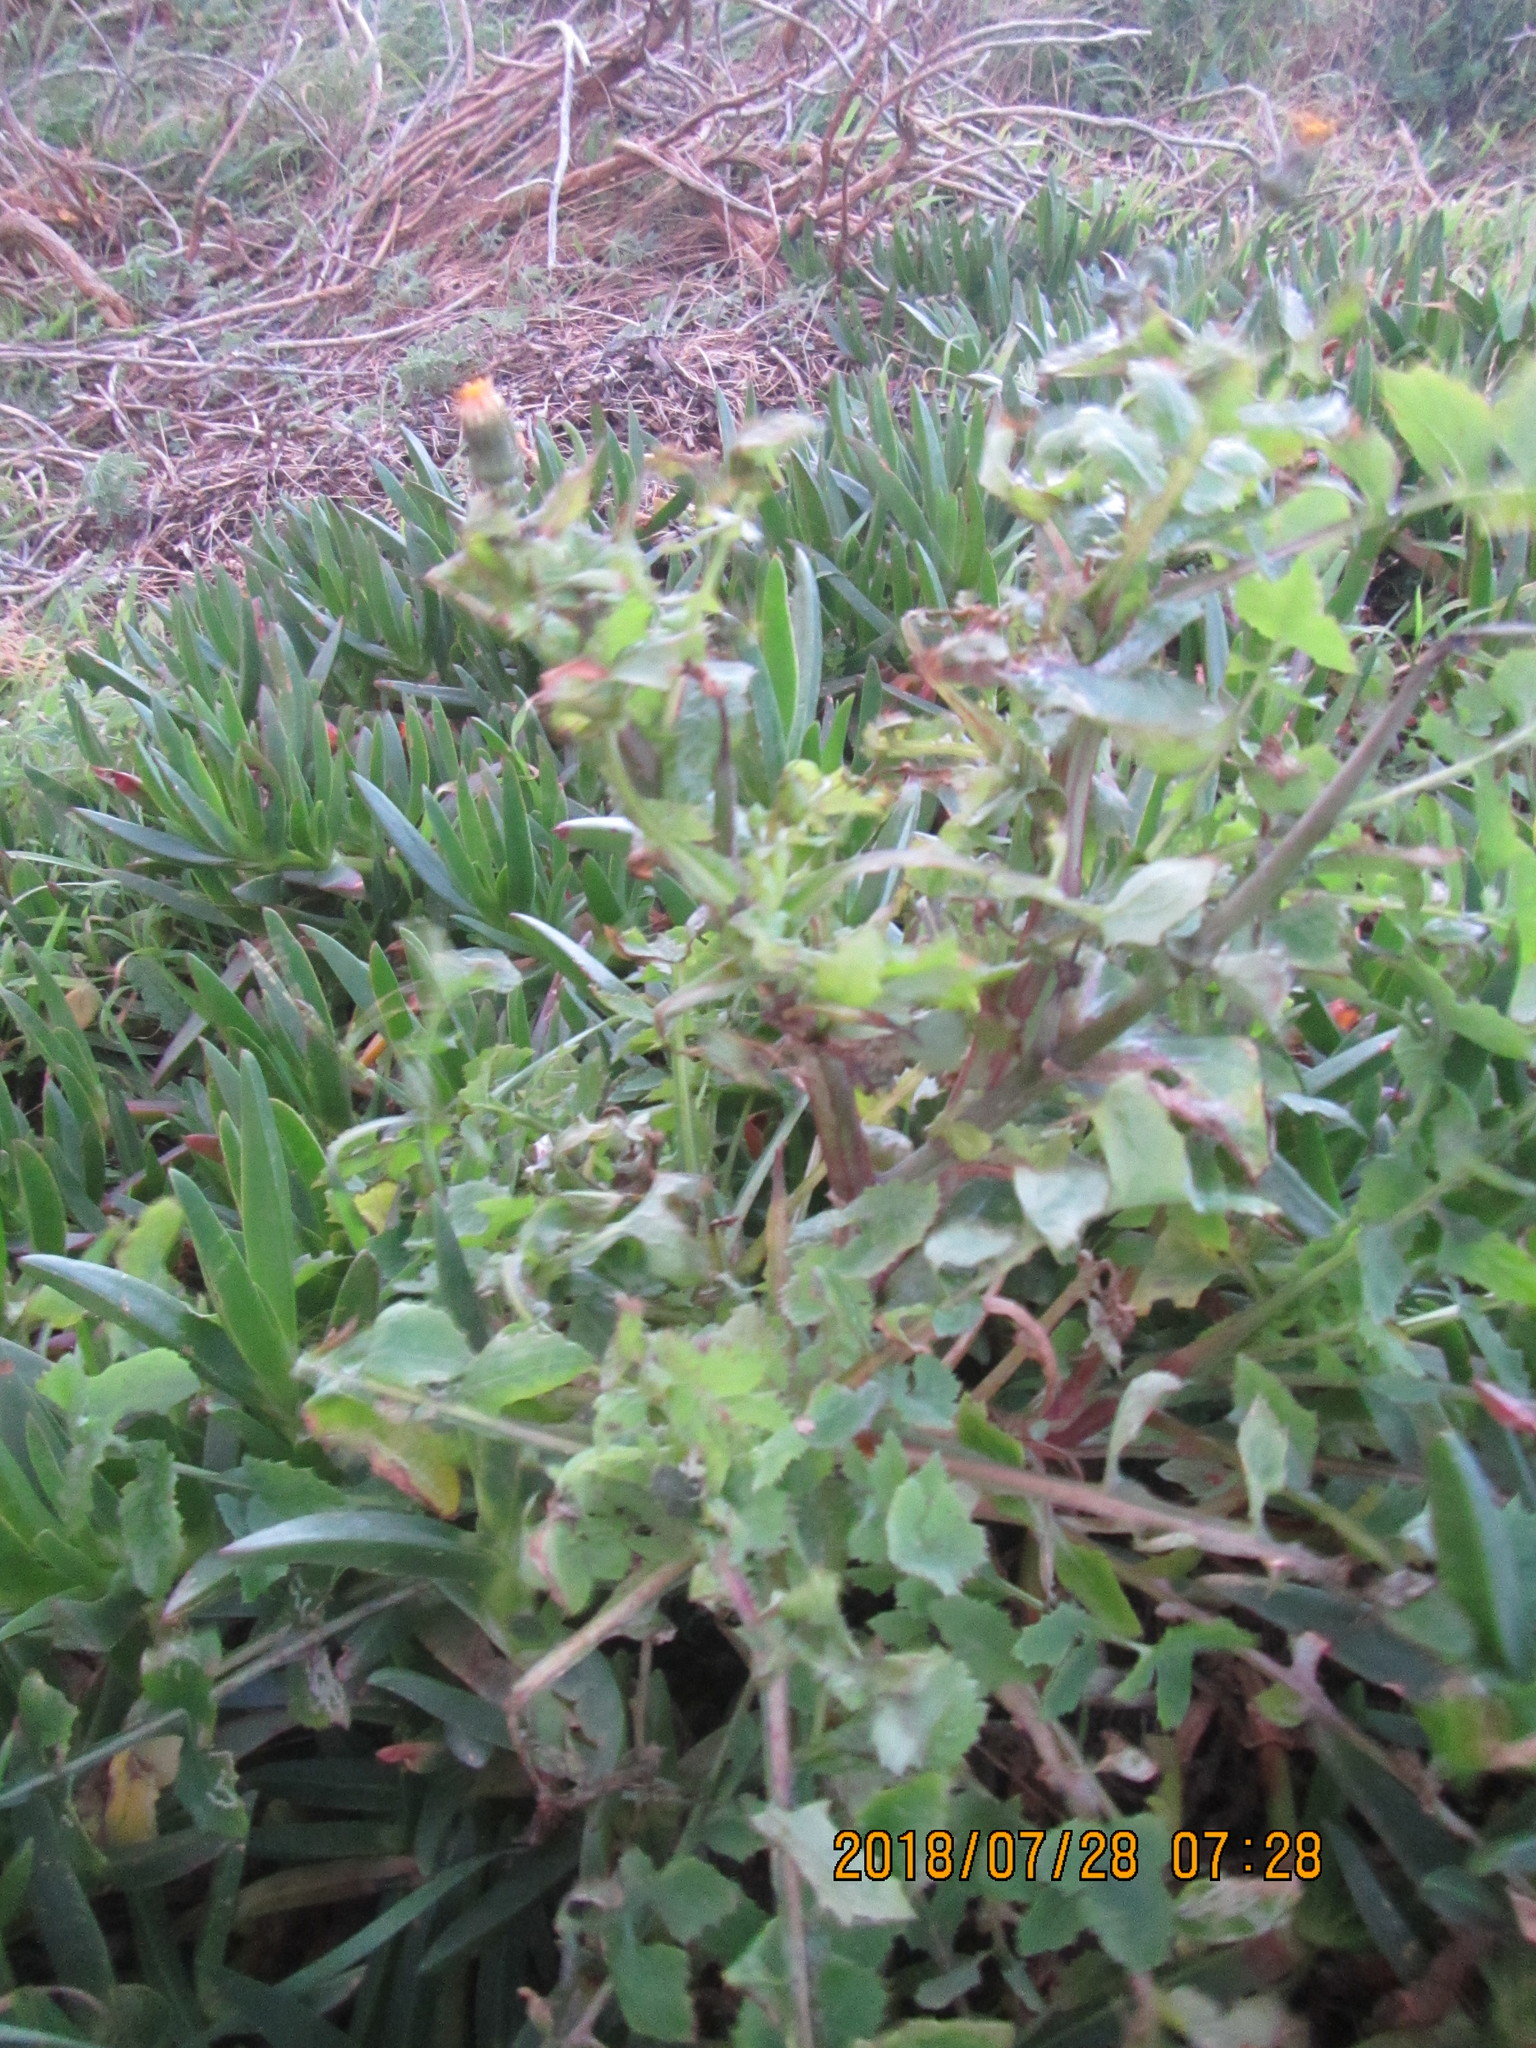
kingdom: Plantae
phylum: Tracheophyta
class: Magnoliopsida
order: Asterales
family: Asteraceae
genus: Sonchus
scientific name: Sonchus oleraceus
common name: Common sowthistle
